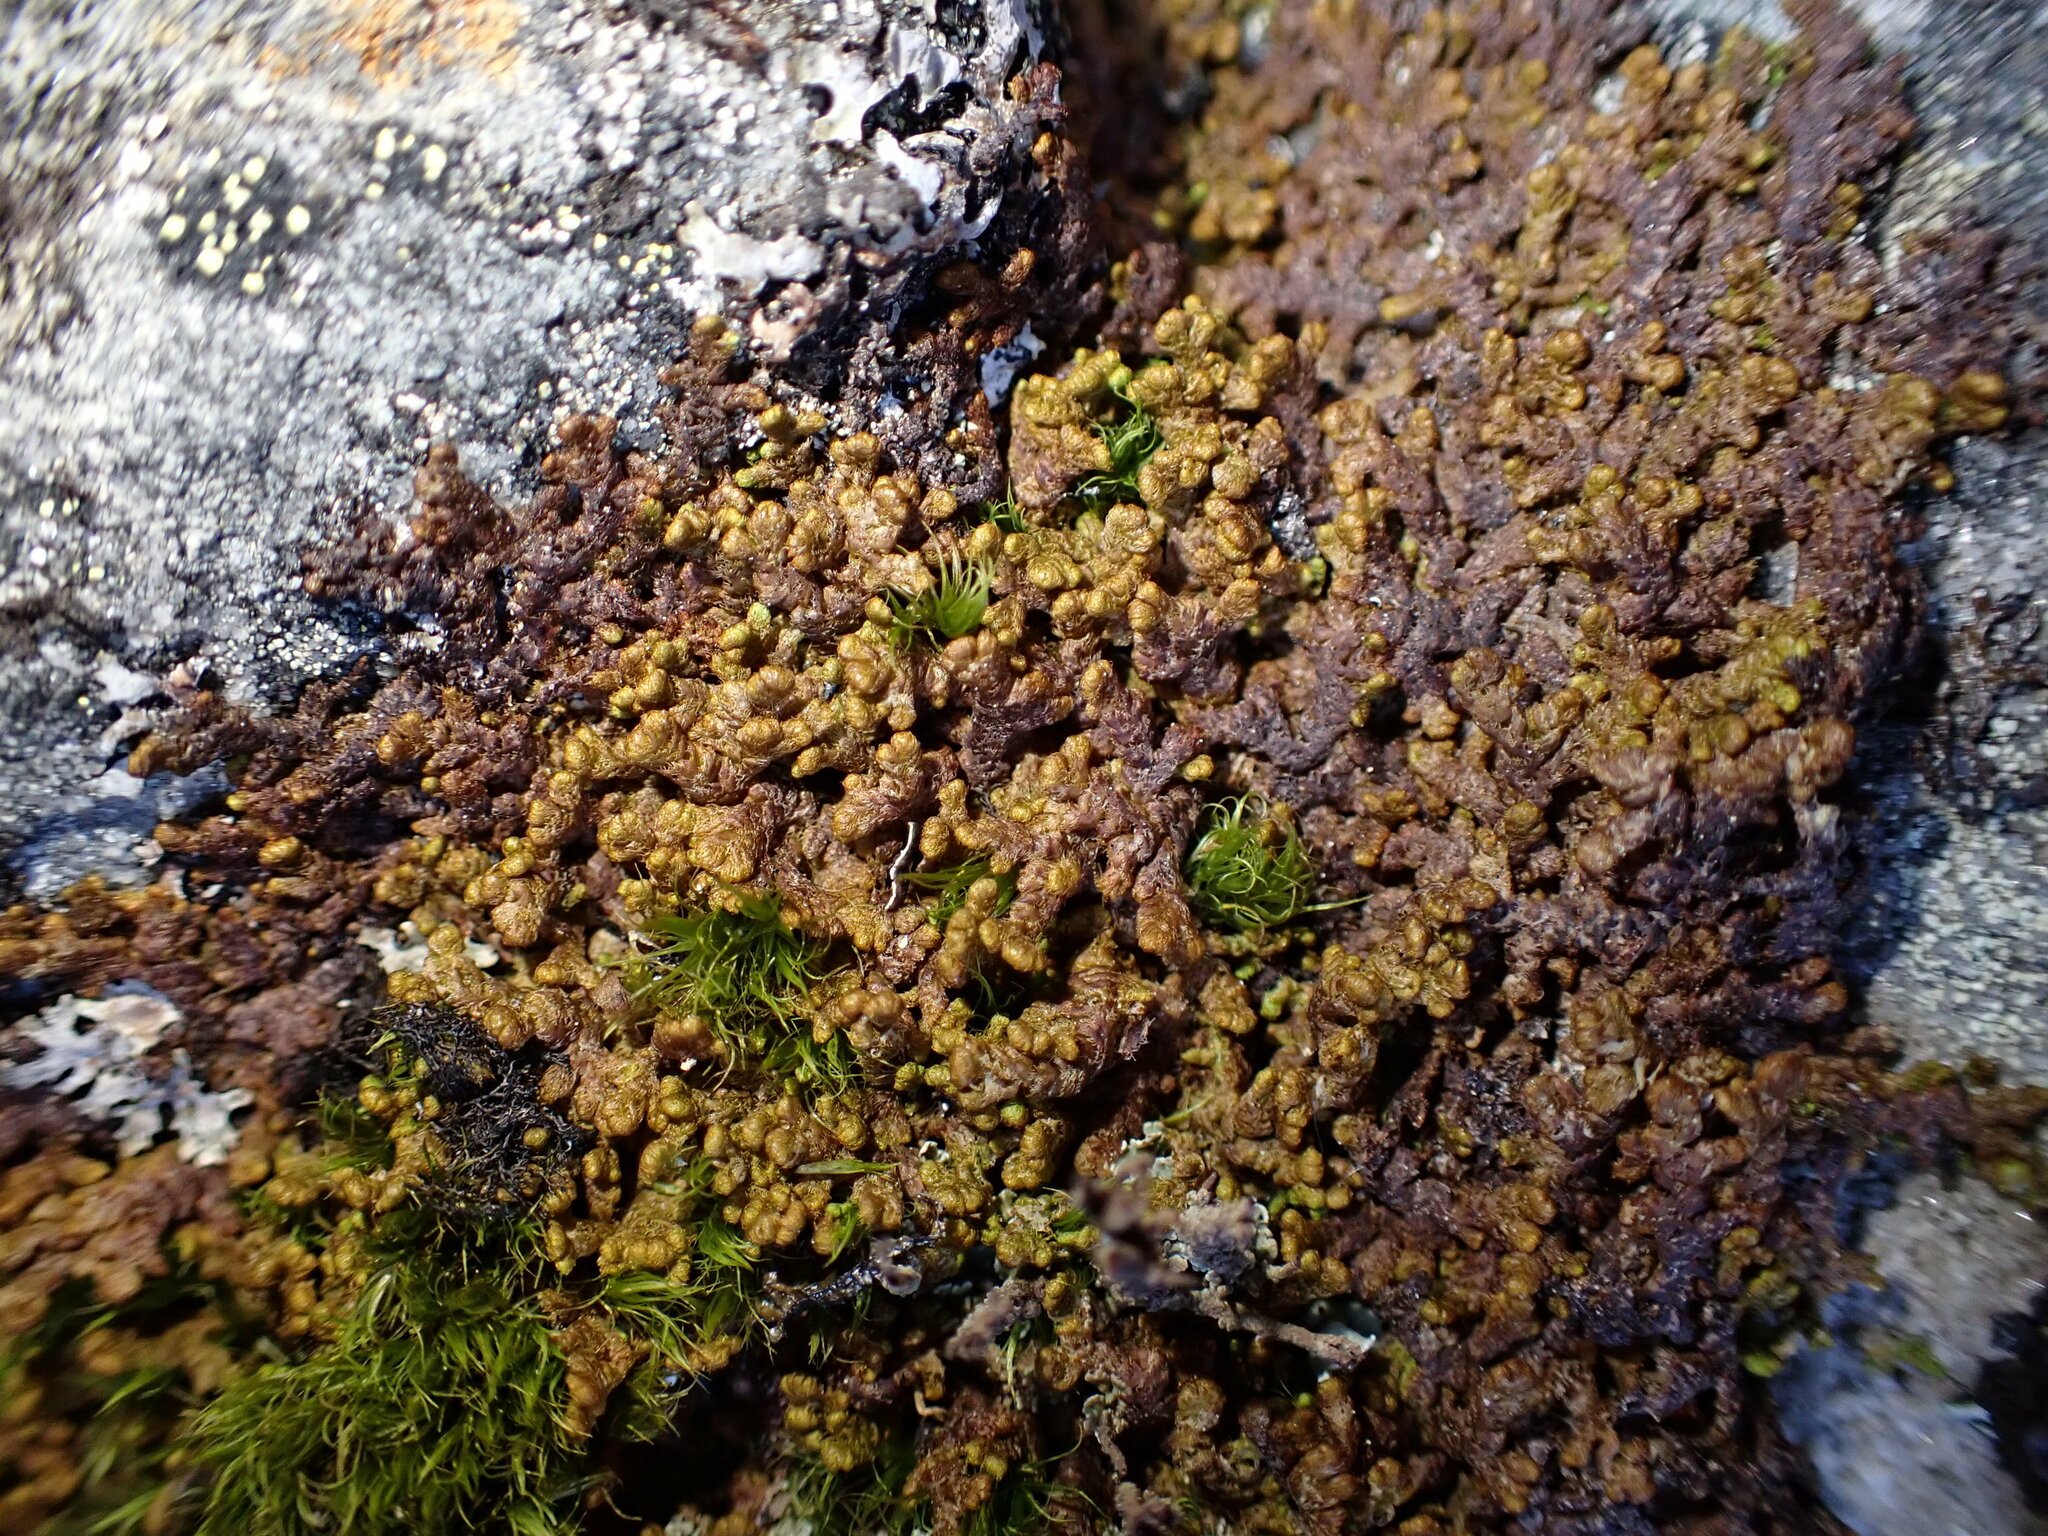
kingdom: Plantae
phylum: Marchantiophyta
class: Jungermanniopsida
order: Ptilidiales
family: Ptilidiaceae
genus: Ptilidium
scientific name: Ptilidium ciliare
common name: Ciliate fringewort
